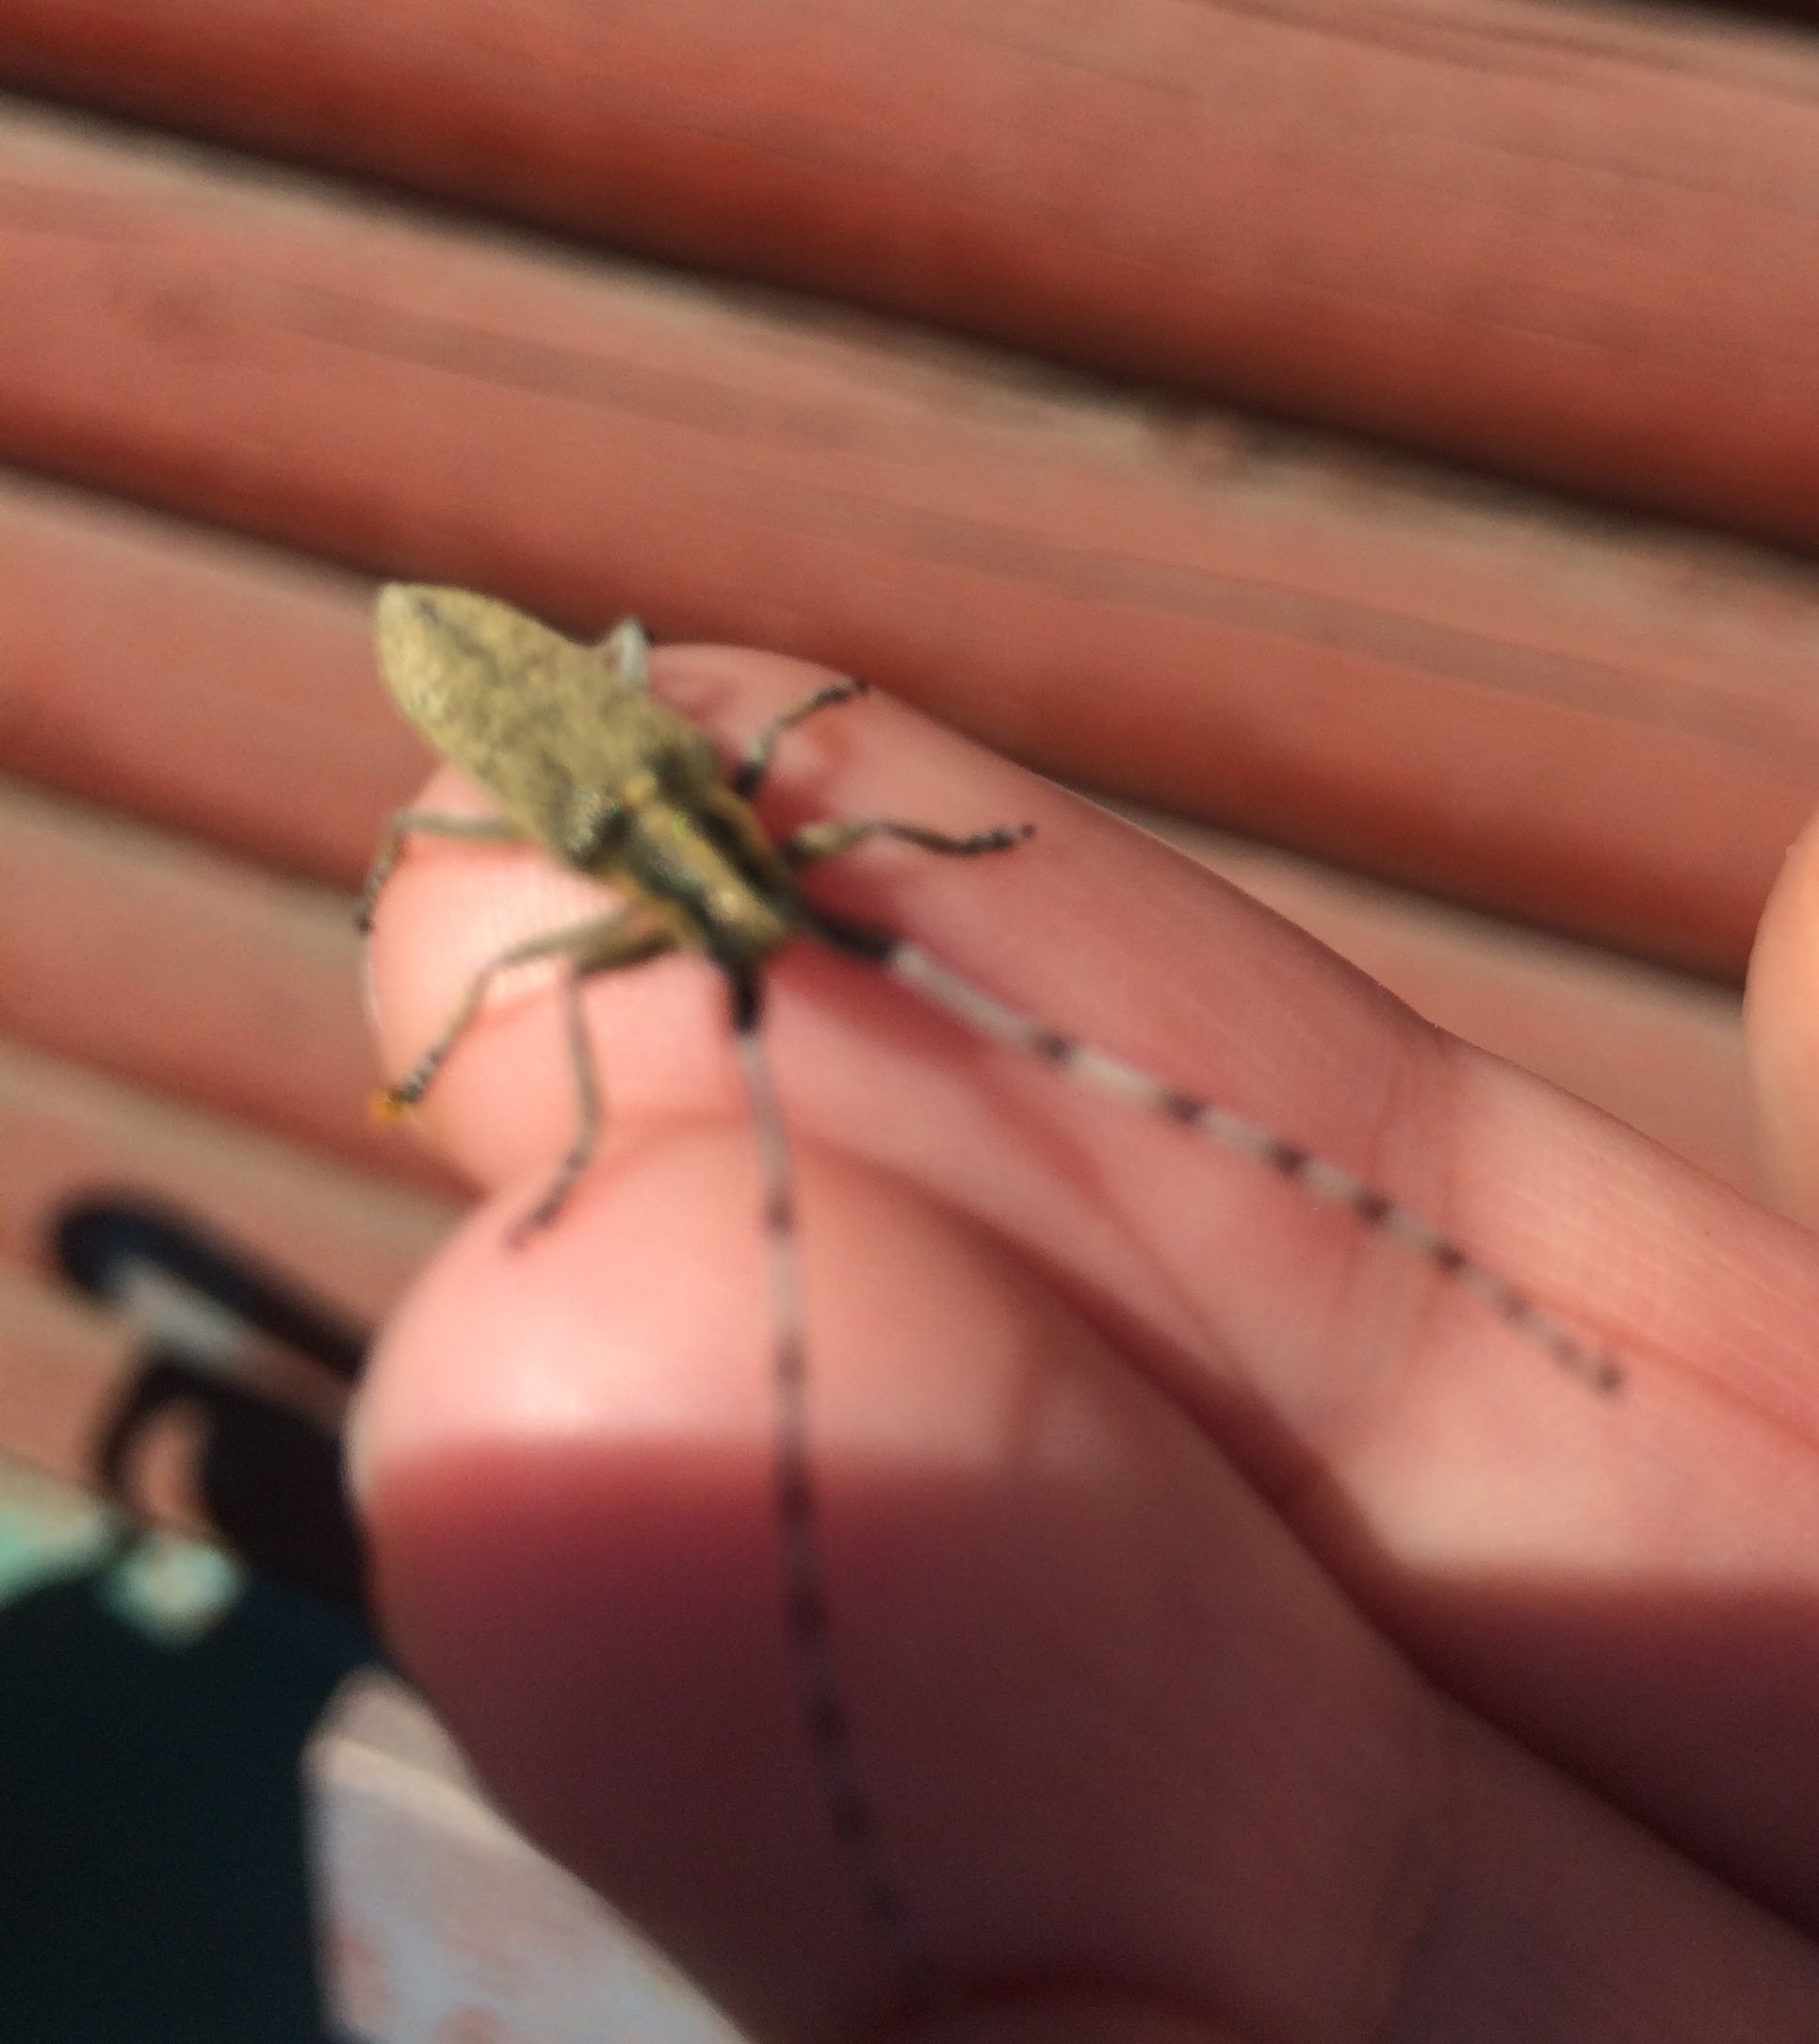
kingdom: Animalia
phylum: Arthropoda
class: Insecta
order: Coleoptera
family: Cerambycidae
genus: Agapanthia
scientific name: Agapanthia villosoviridescens
